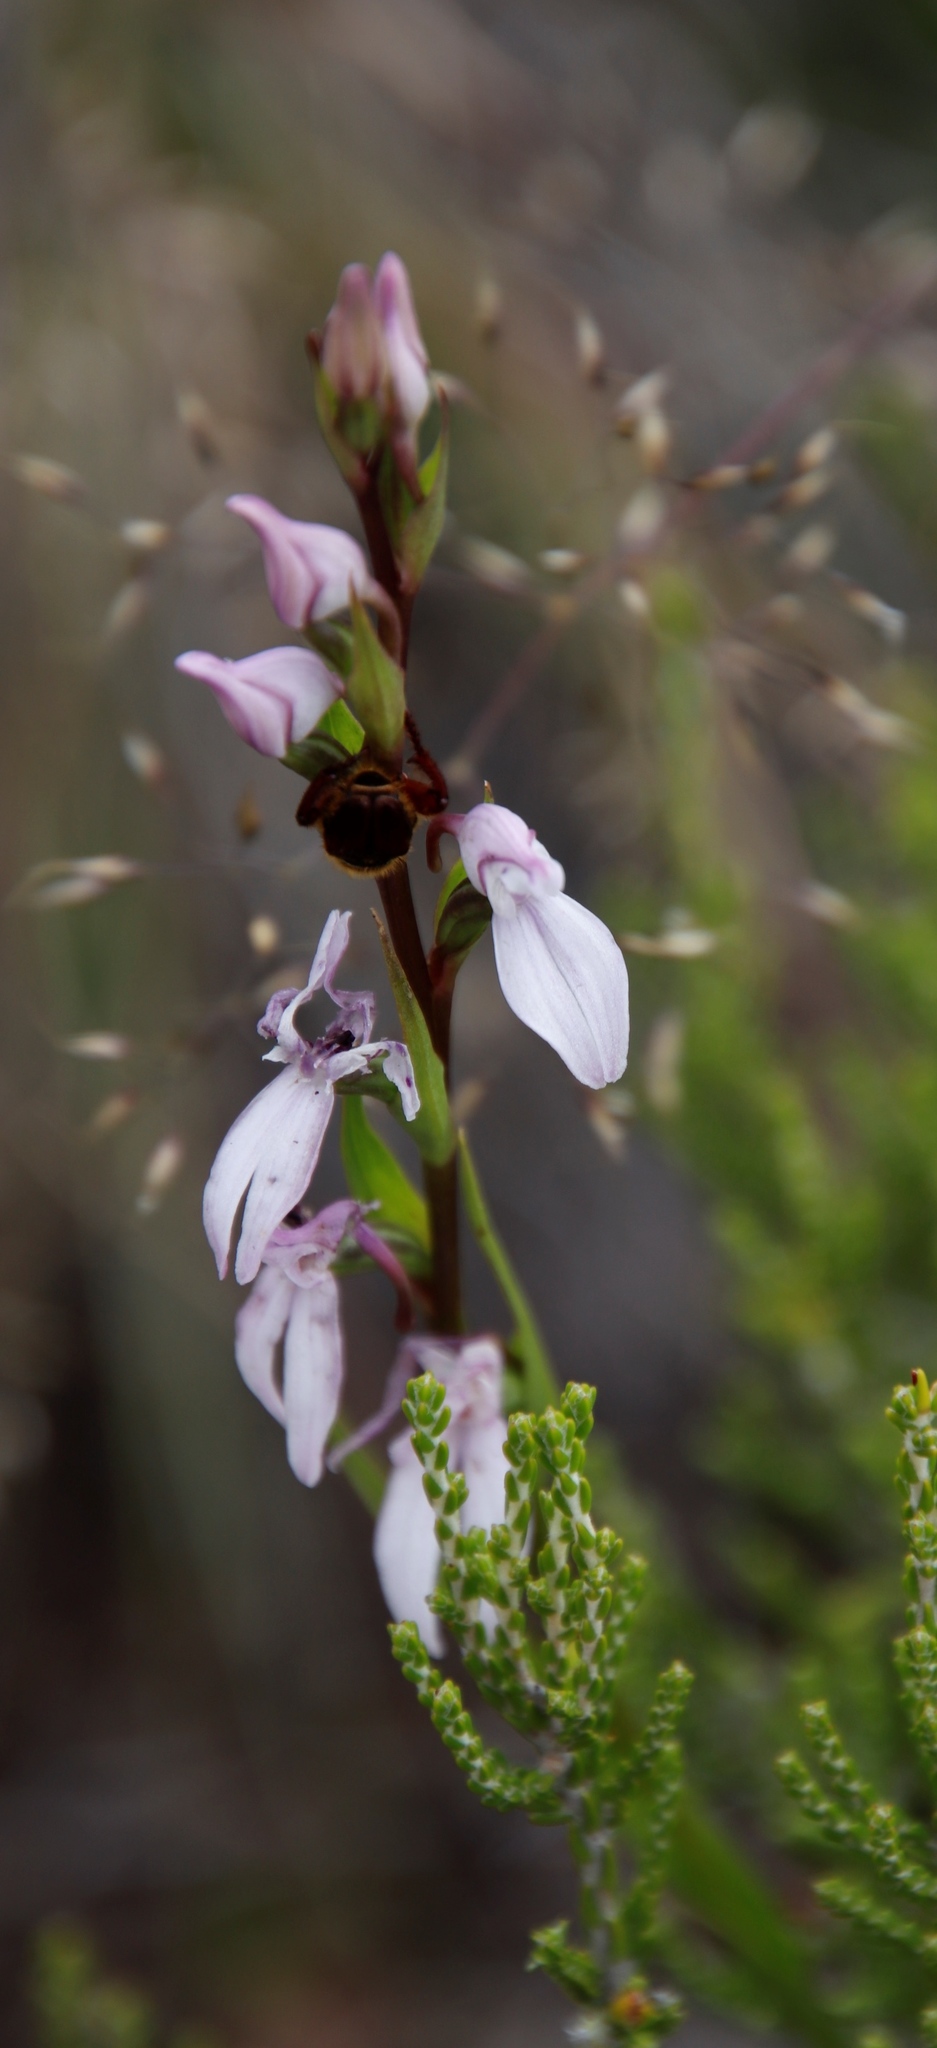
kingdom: Plantae
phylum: Tracheophyta
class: Liliopsida
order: Asparagales
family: Orchidaceae
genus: Brownleea
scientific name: Brownleea recurvata
